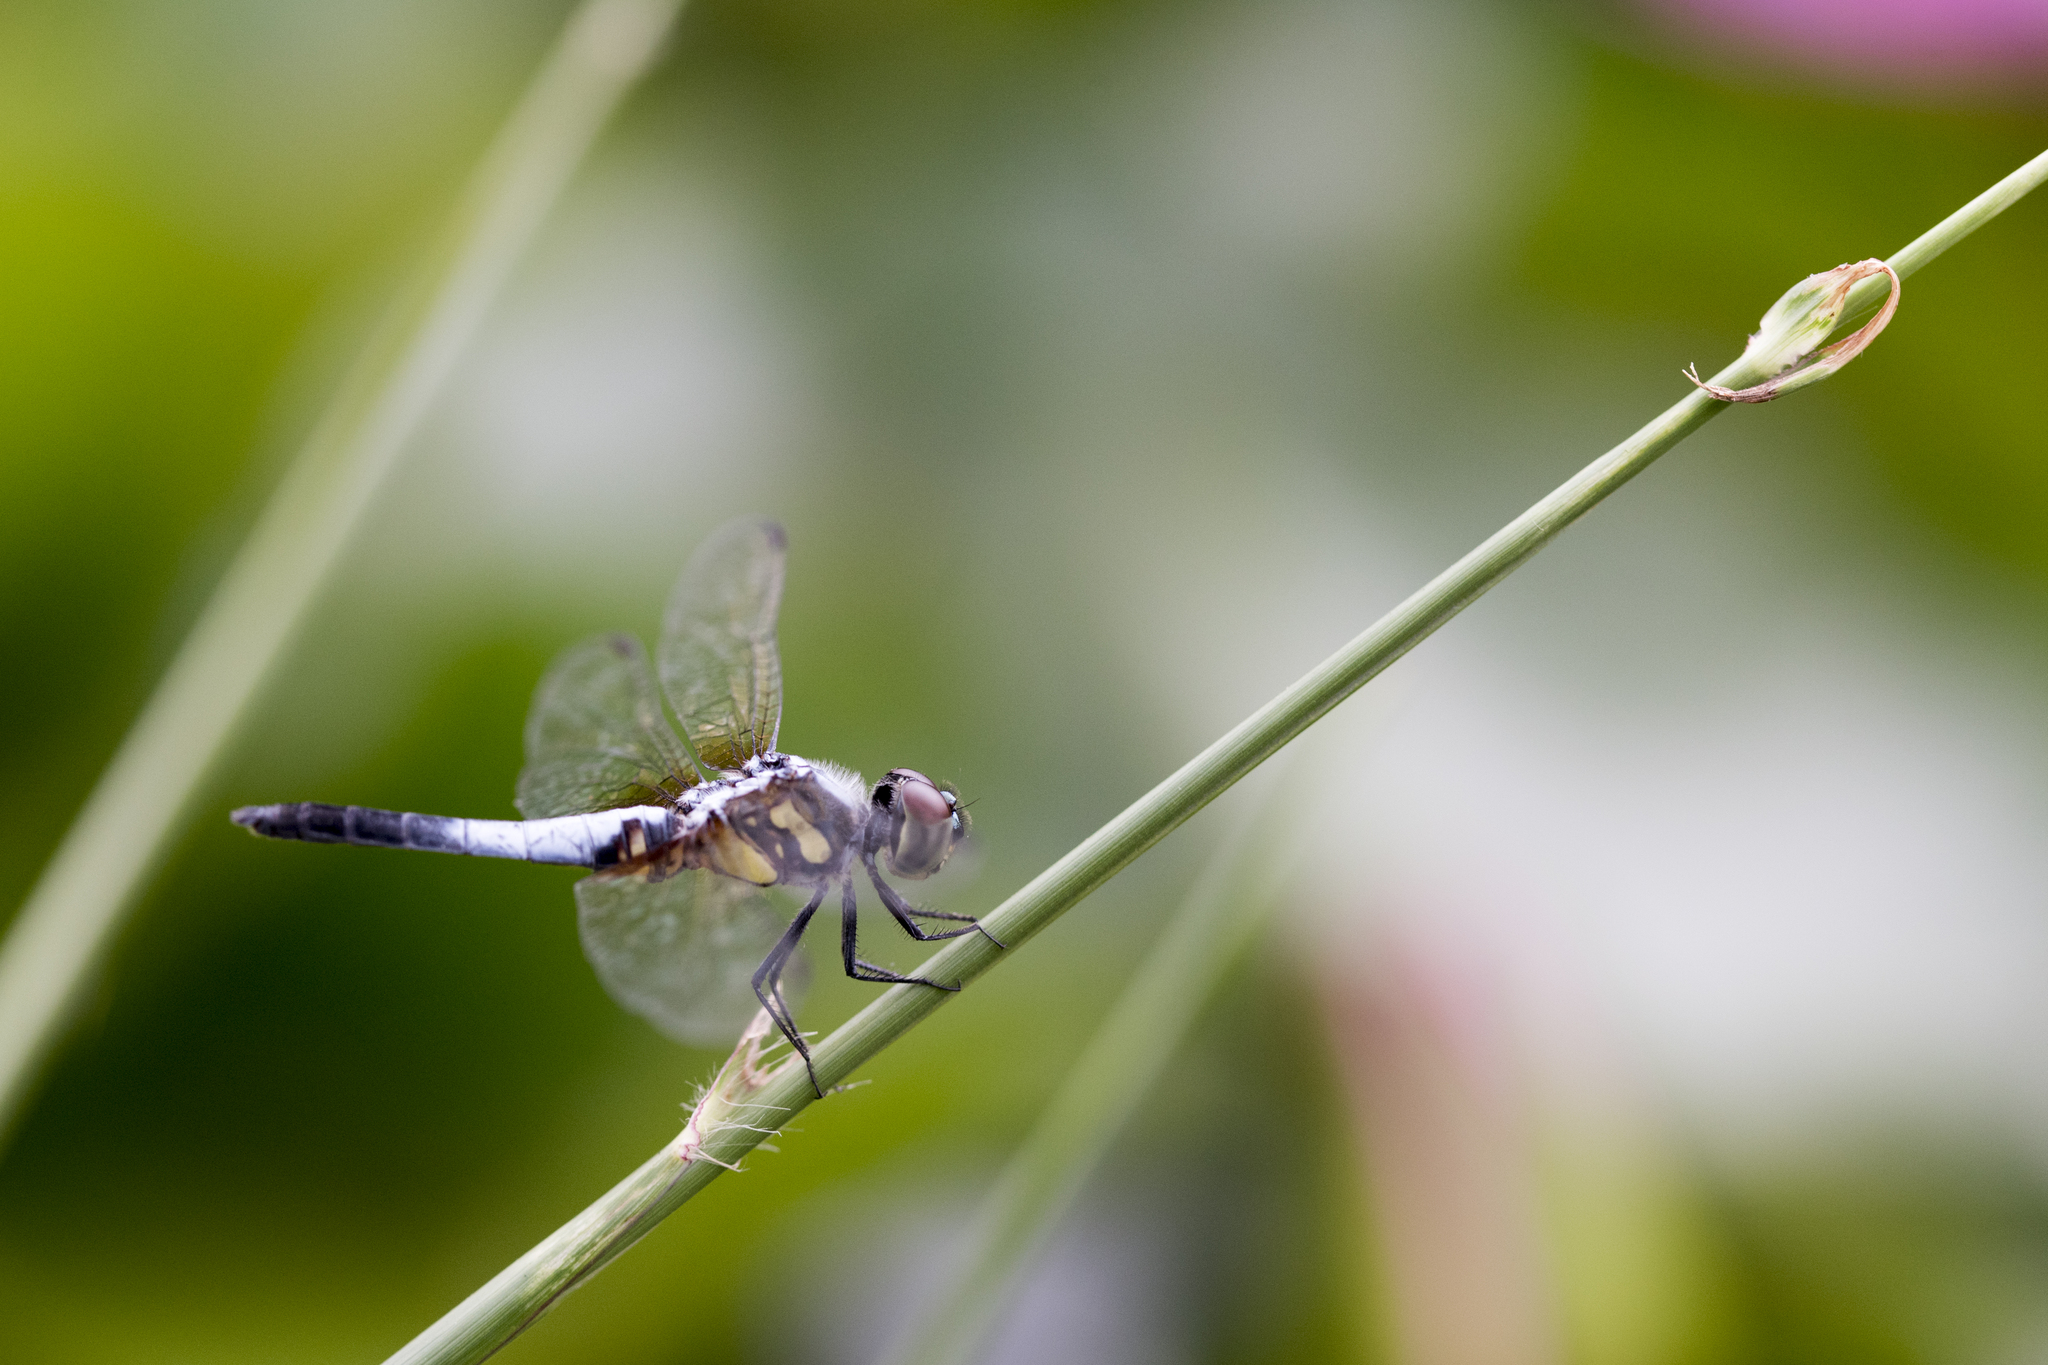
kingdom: Animalia
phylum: Arthropoda
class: Insecta
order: Odonata
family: Libellulidae
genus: Brachydiplax
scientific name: Brachydiplax chalybea
